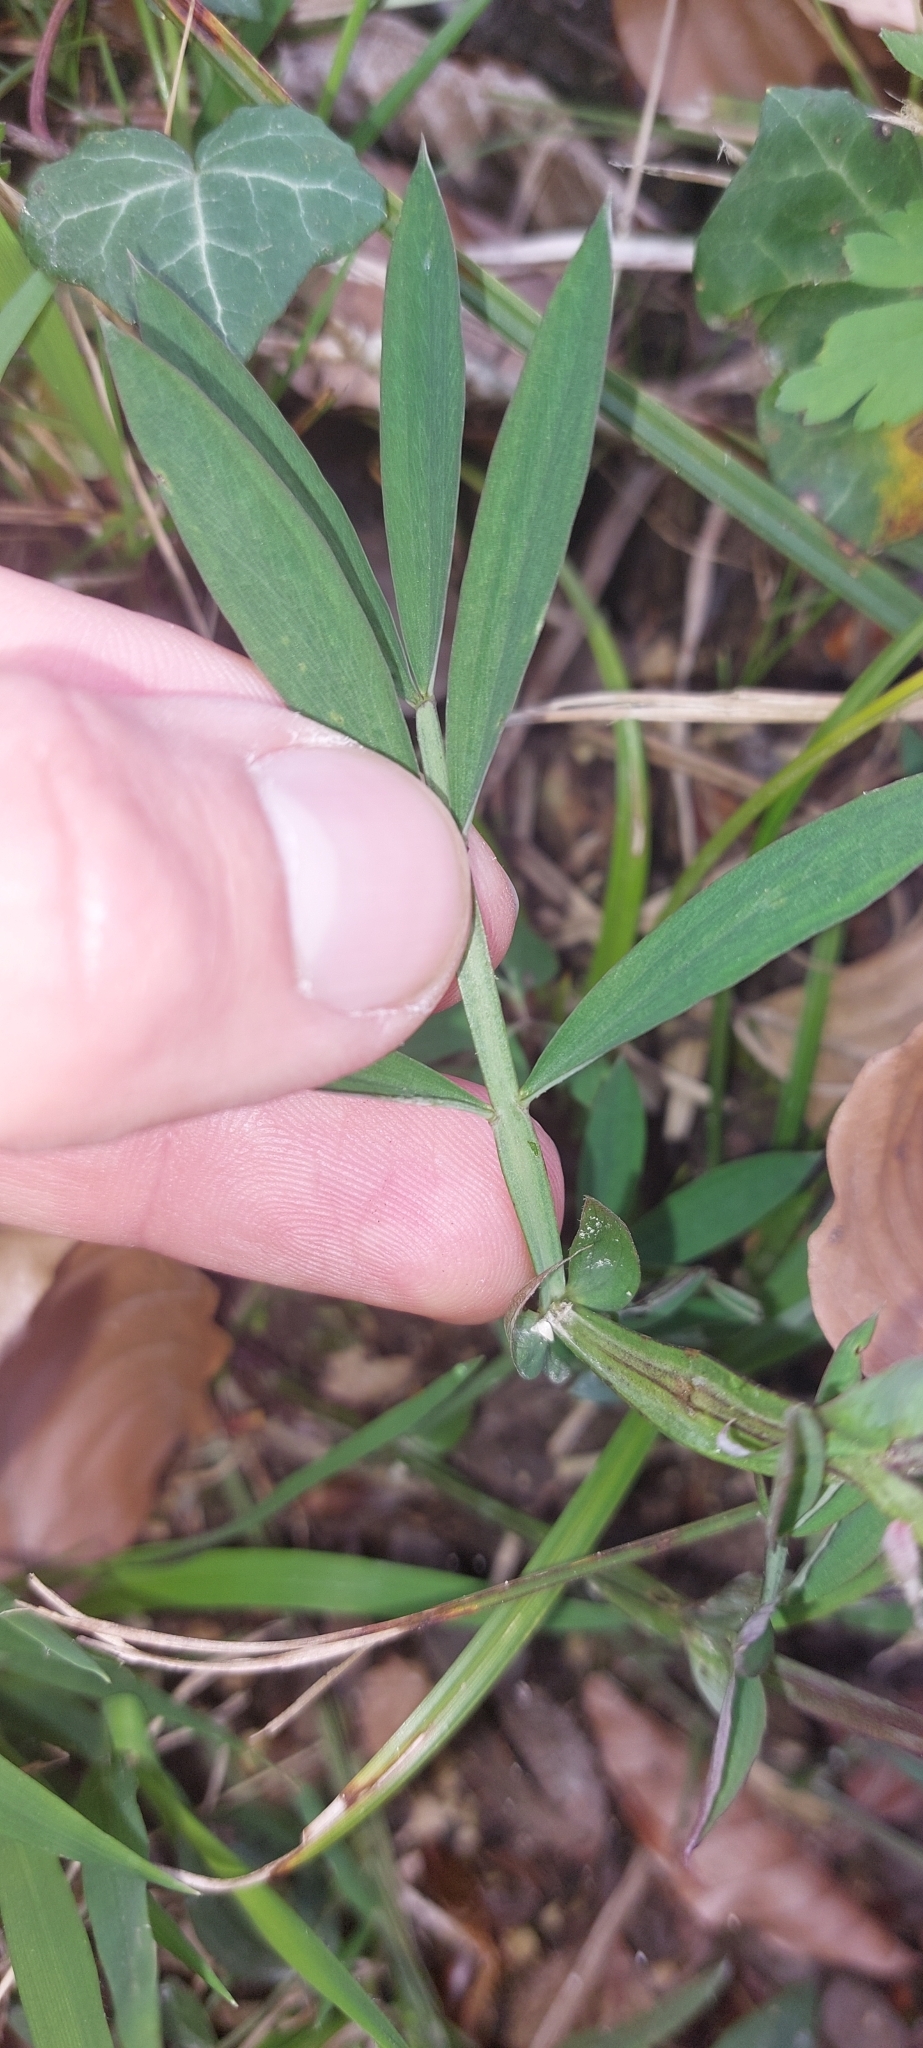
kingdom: Plantae
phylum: Tracheophyta
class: Magnoliopsida
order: Fabales
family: Fabaceae
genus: Lathyrus
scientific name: Lathyrus linifolius
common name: Bitter-vetch
